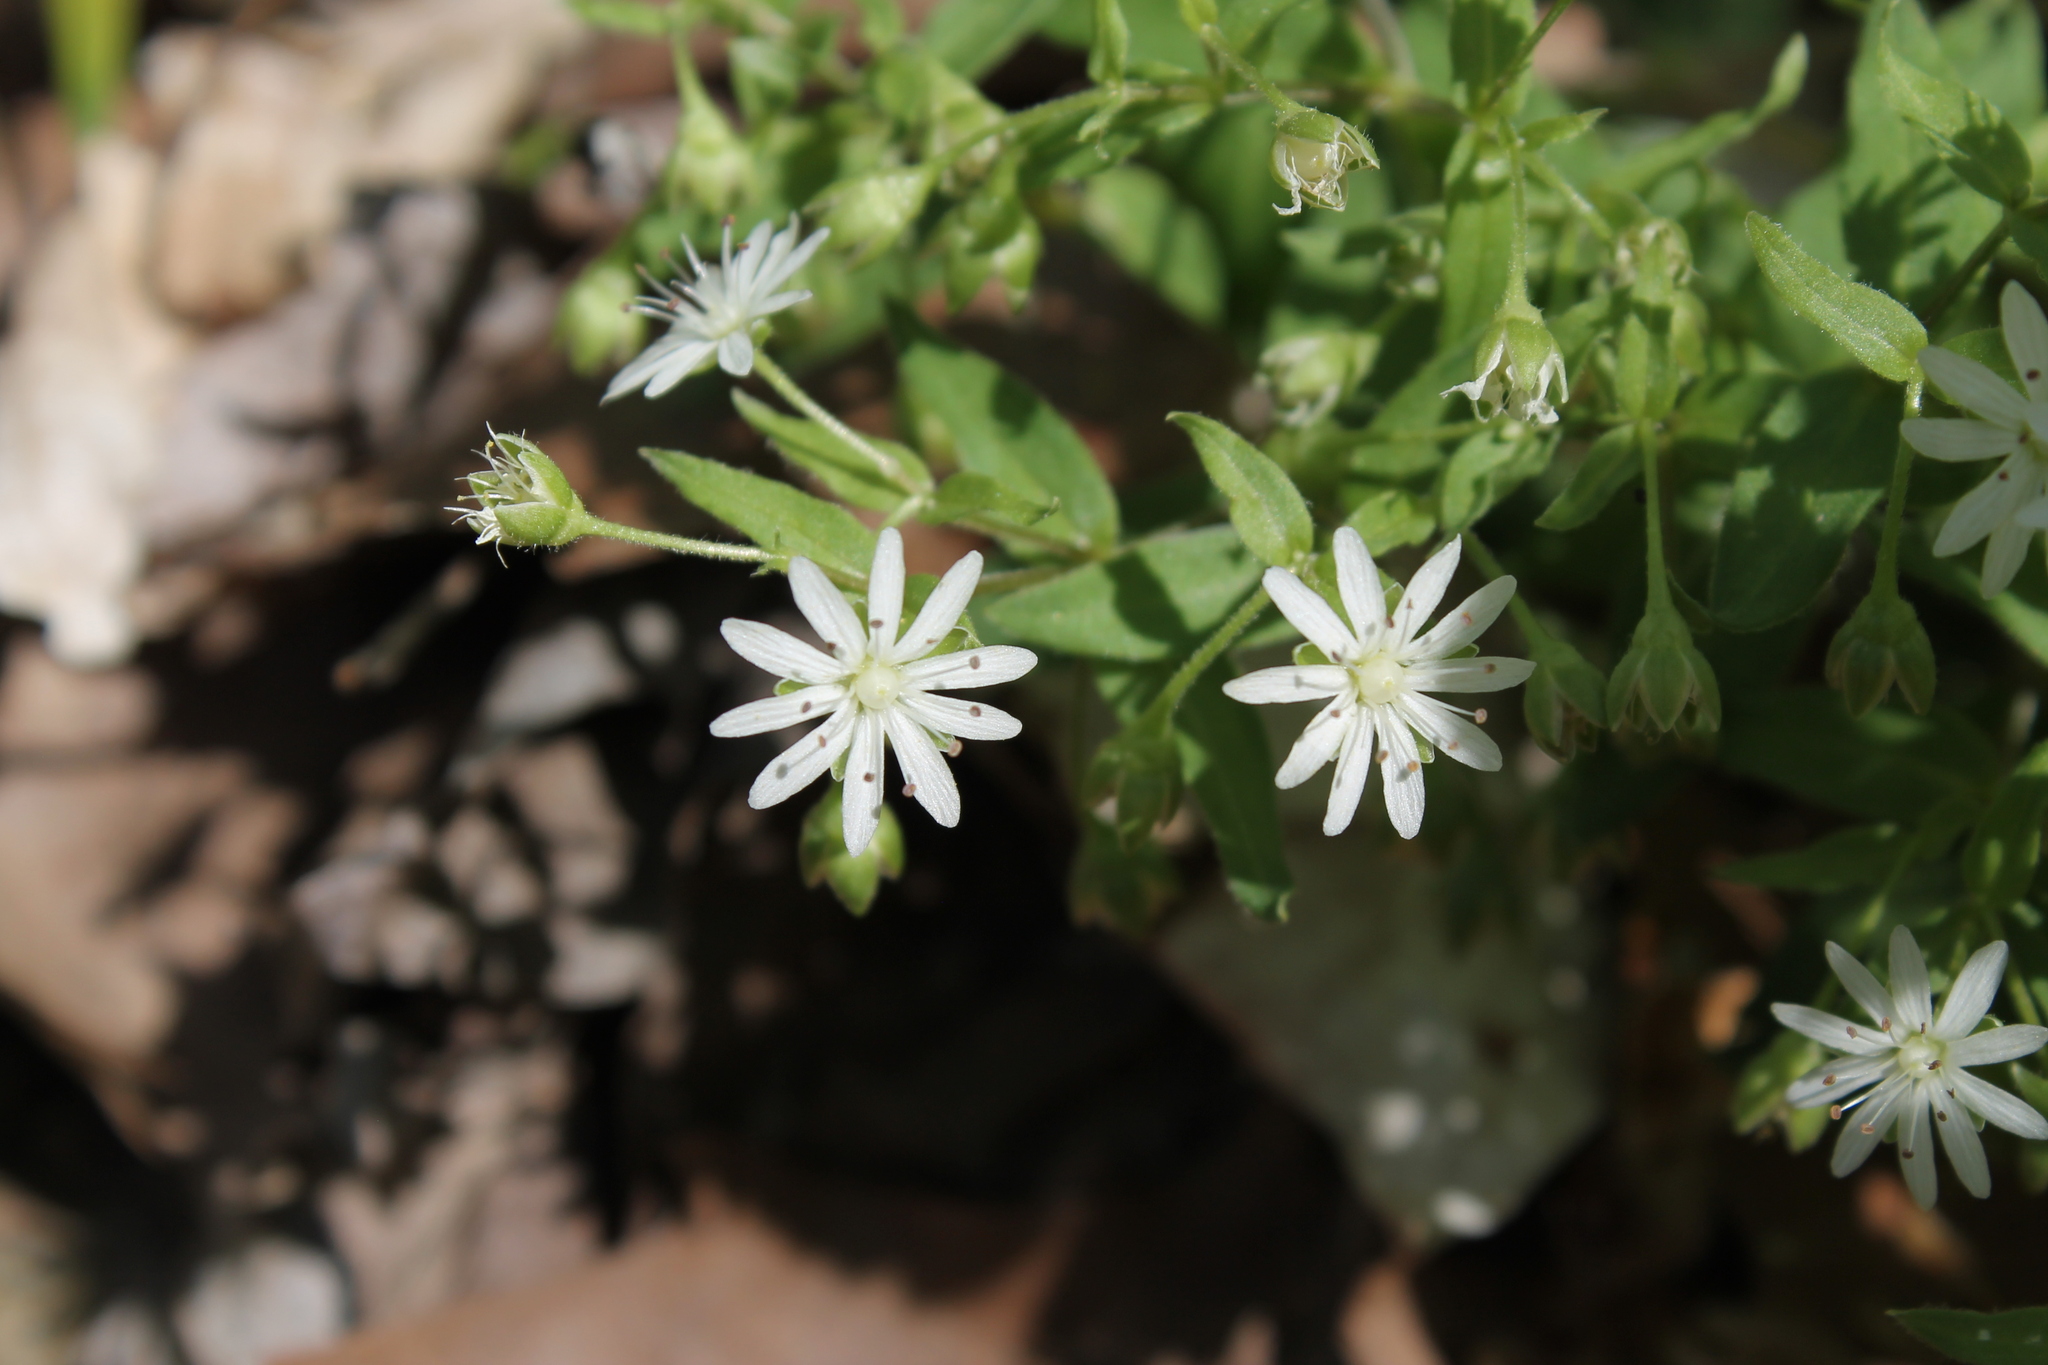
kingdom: Plantae
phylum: Tracheophyta
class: Magnoliopsida
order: Caryophyllales
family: Caryophyllaceae
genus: Stellaria
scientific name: Stellaria pubera
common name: Star chickweed
